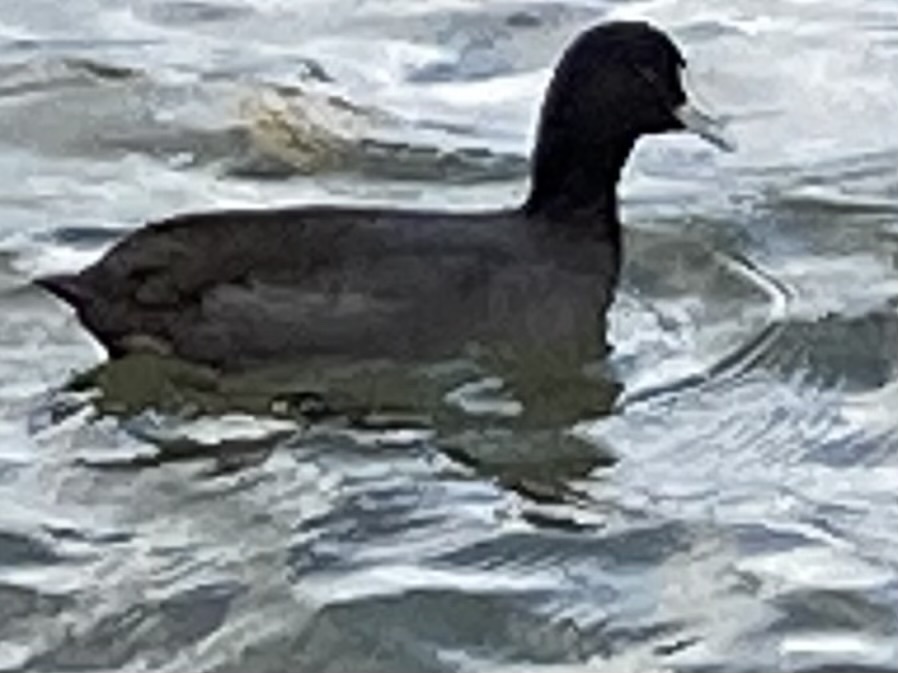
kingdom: Animalia
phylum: Chordata
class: Aves
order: Gruiformes
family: Rallidae
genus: Fulica
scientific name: Fulica atra
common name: Eurasian coot
